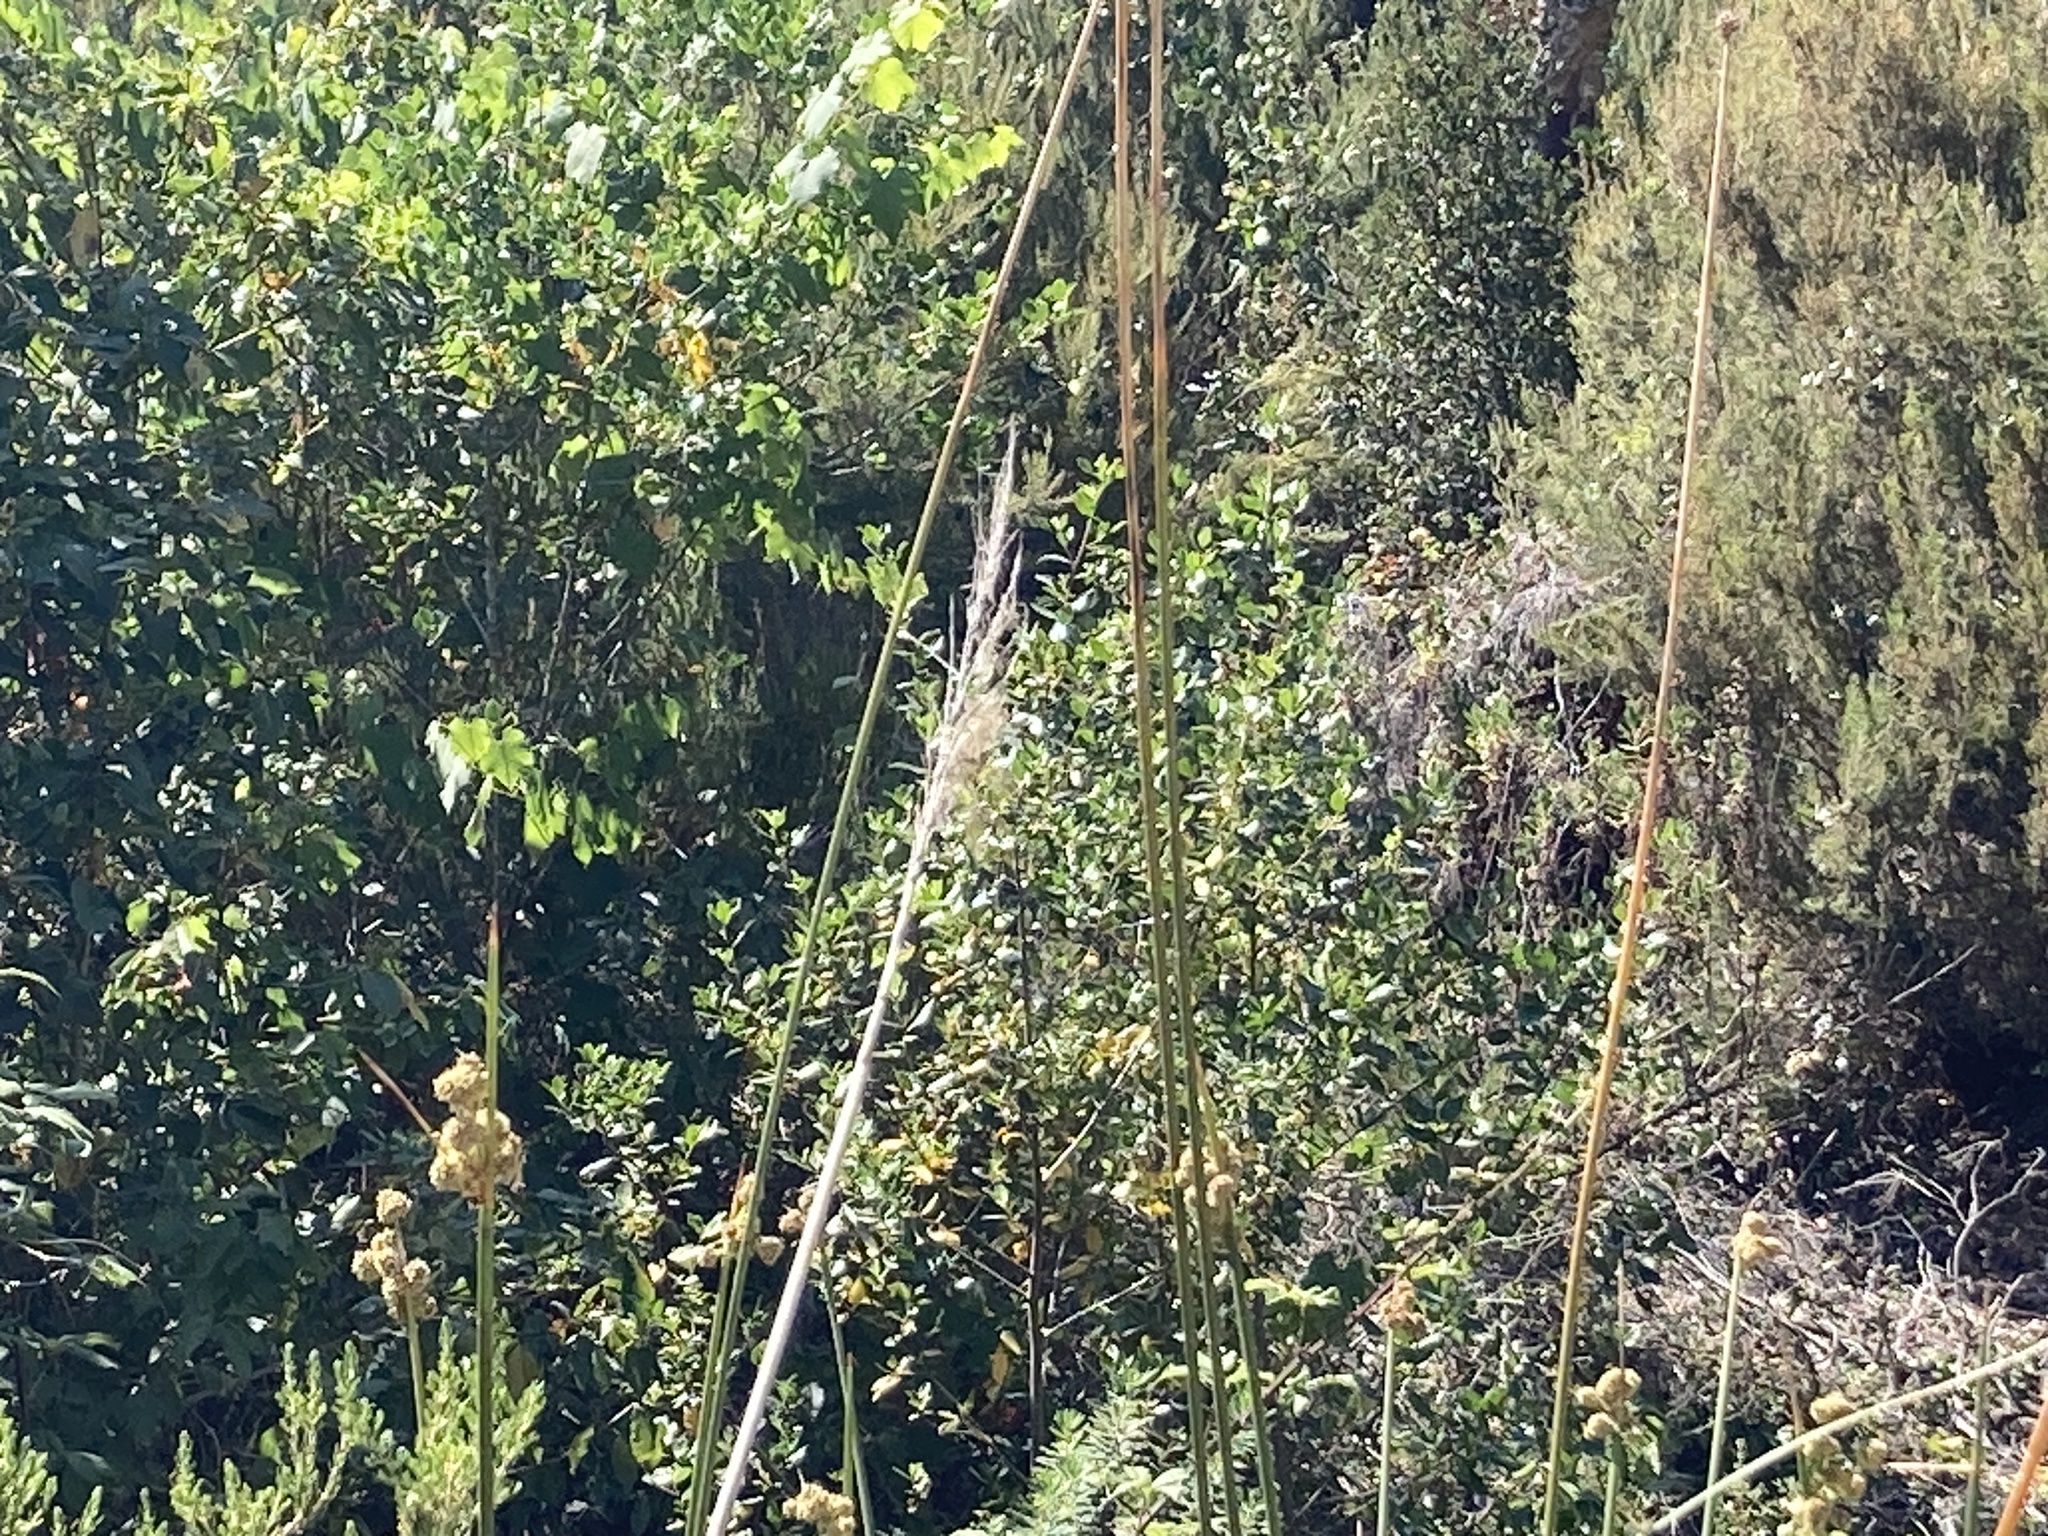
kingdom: Plantae
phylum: Tracheophyta
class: Liliopsida
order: Poales
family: Poaceae
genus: Cortaderia
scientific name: Cortaderia selloana
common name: Uruguayan pampas grass
